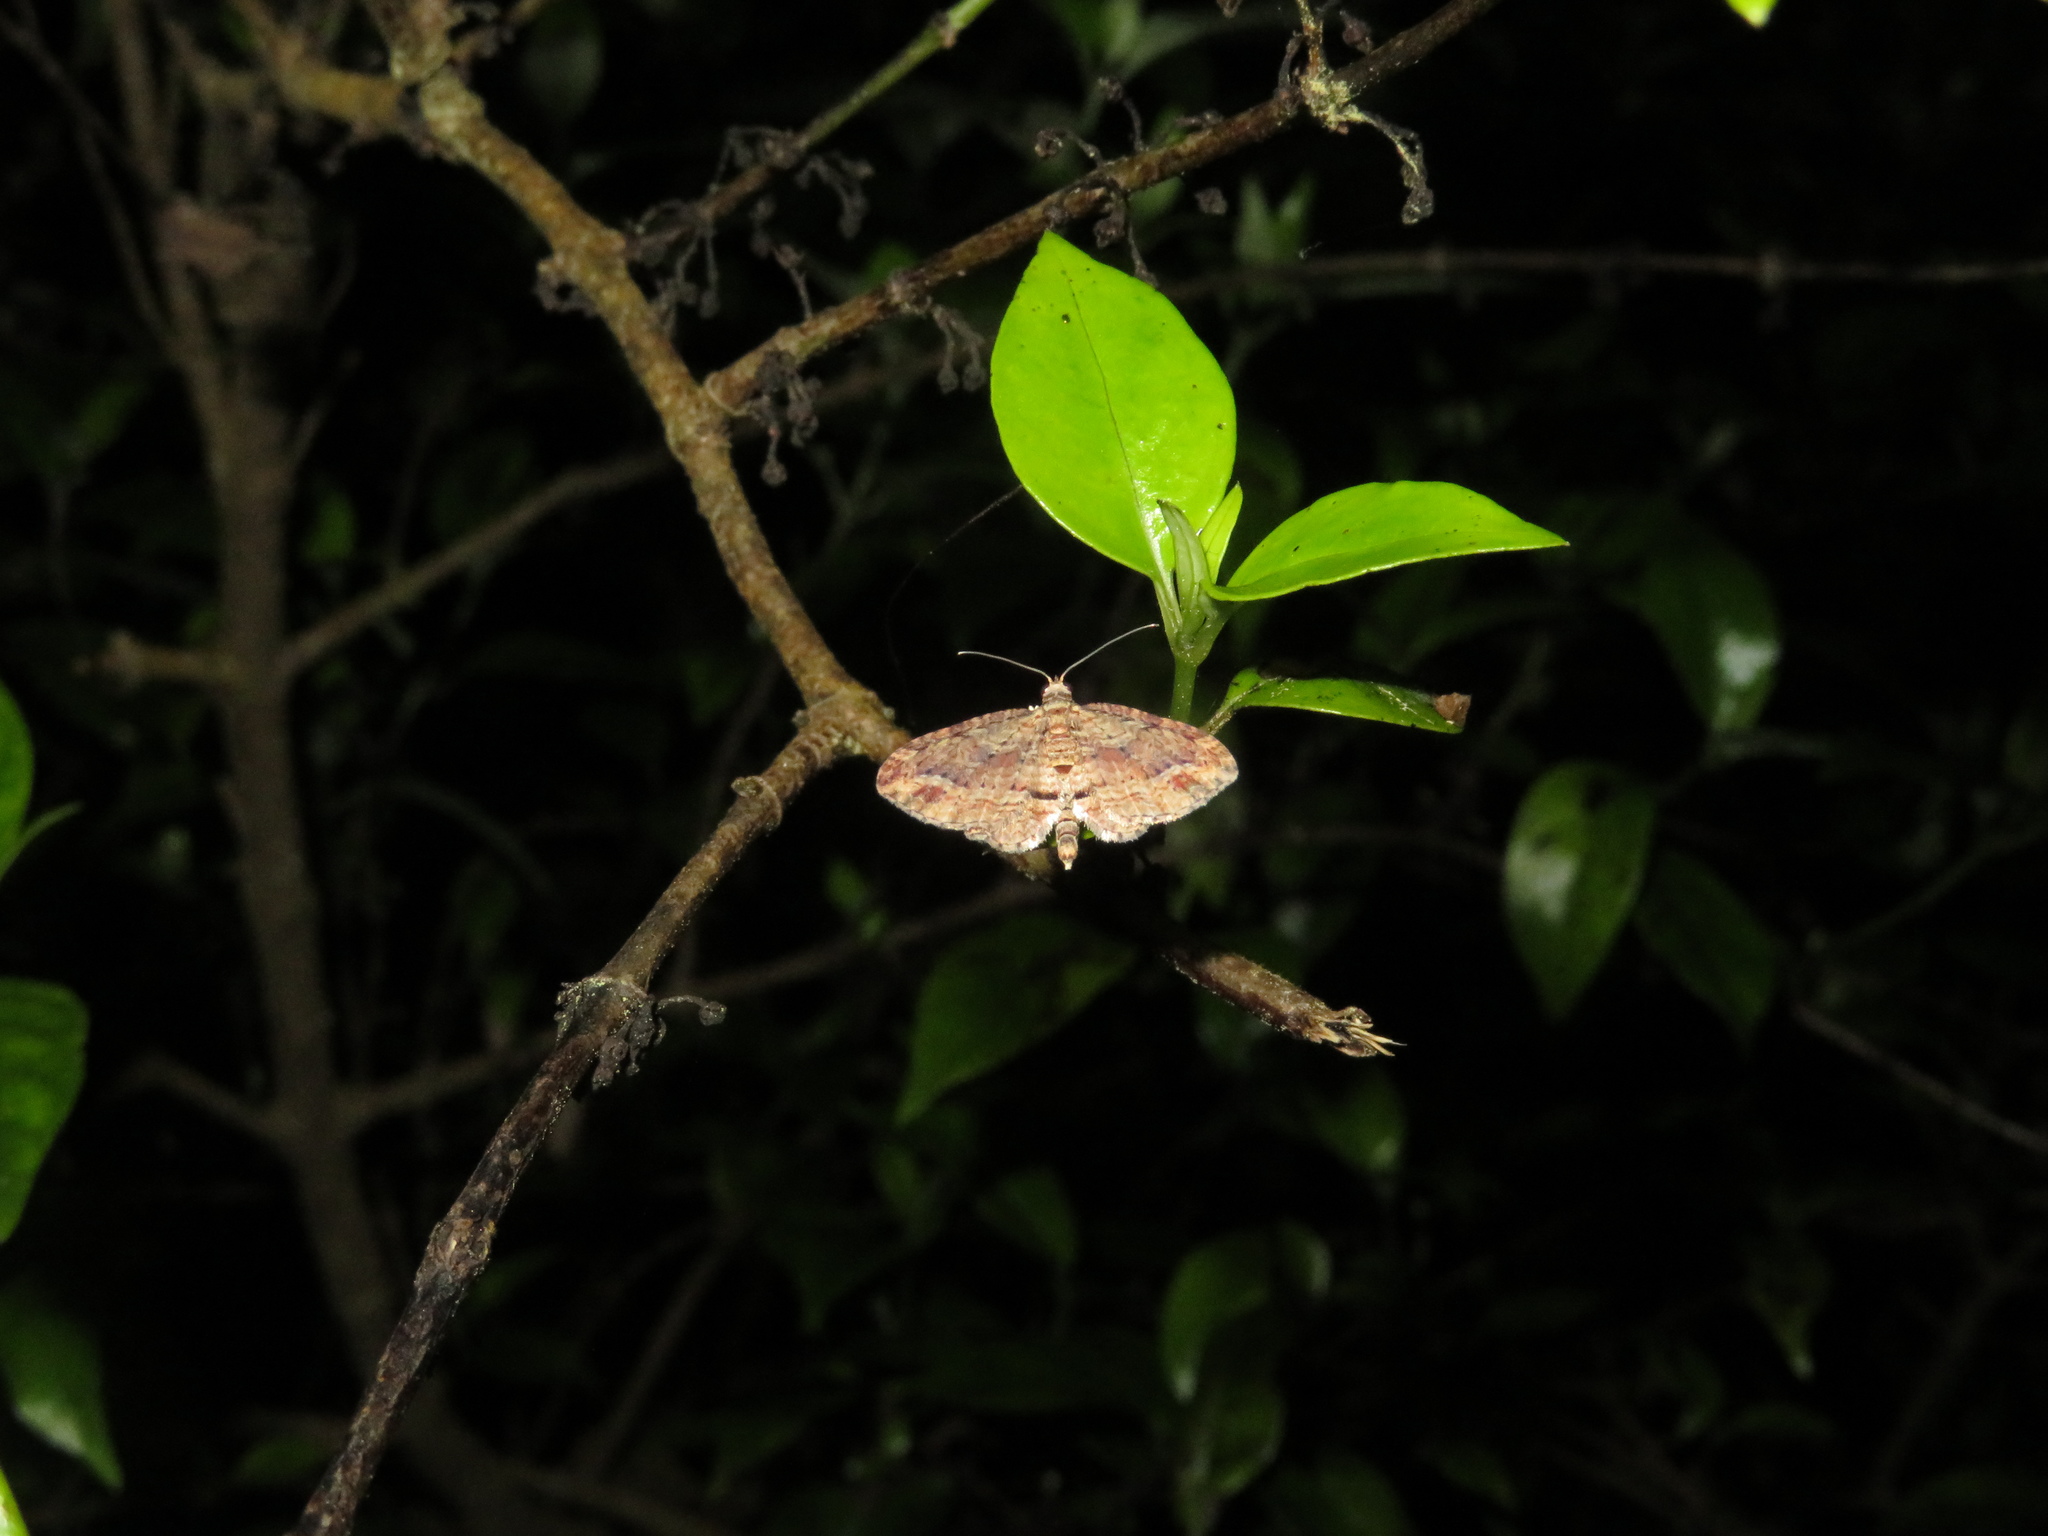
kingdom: Animalia
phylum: Arthropoda
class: Insecta
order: Lepidoptera
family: Geometridae
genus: Chloroclystis
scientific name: Chloroclystis filata
